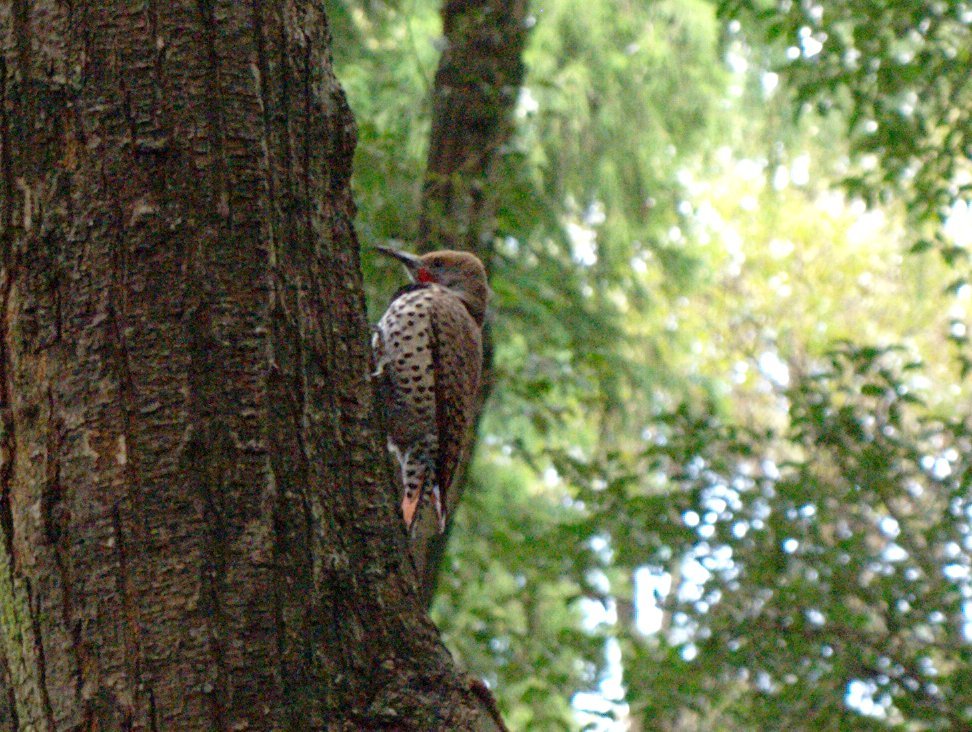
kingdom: Animalia
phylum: Chordata
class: Aves
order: Piciformes
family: Picidae
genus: Colaptes
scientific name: Colaptes auratus
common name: Northern flicker
